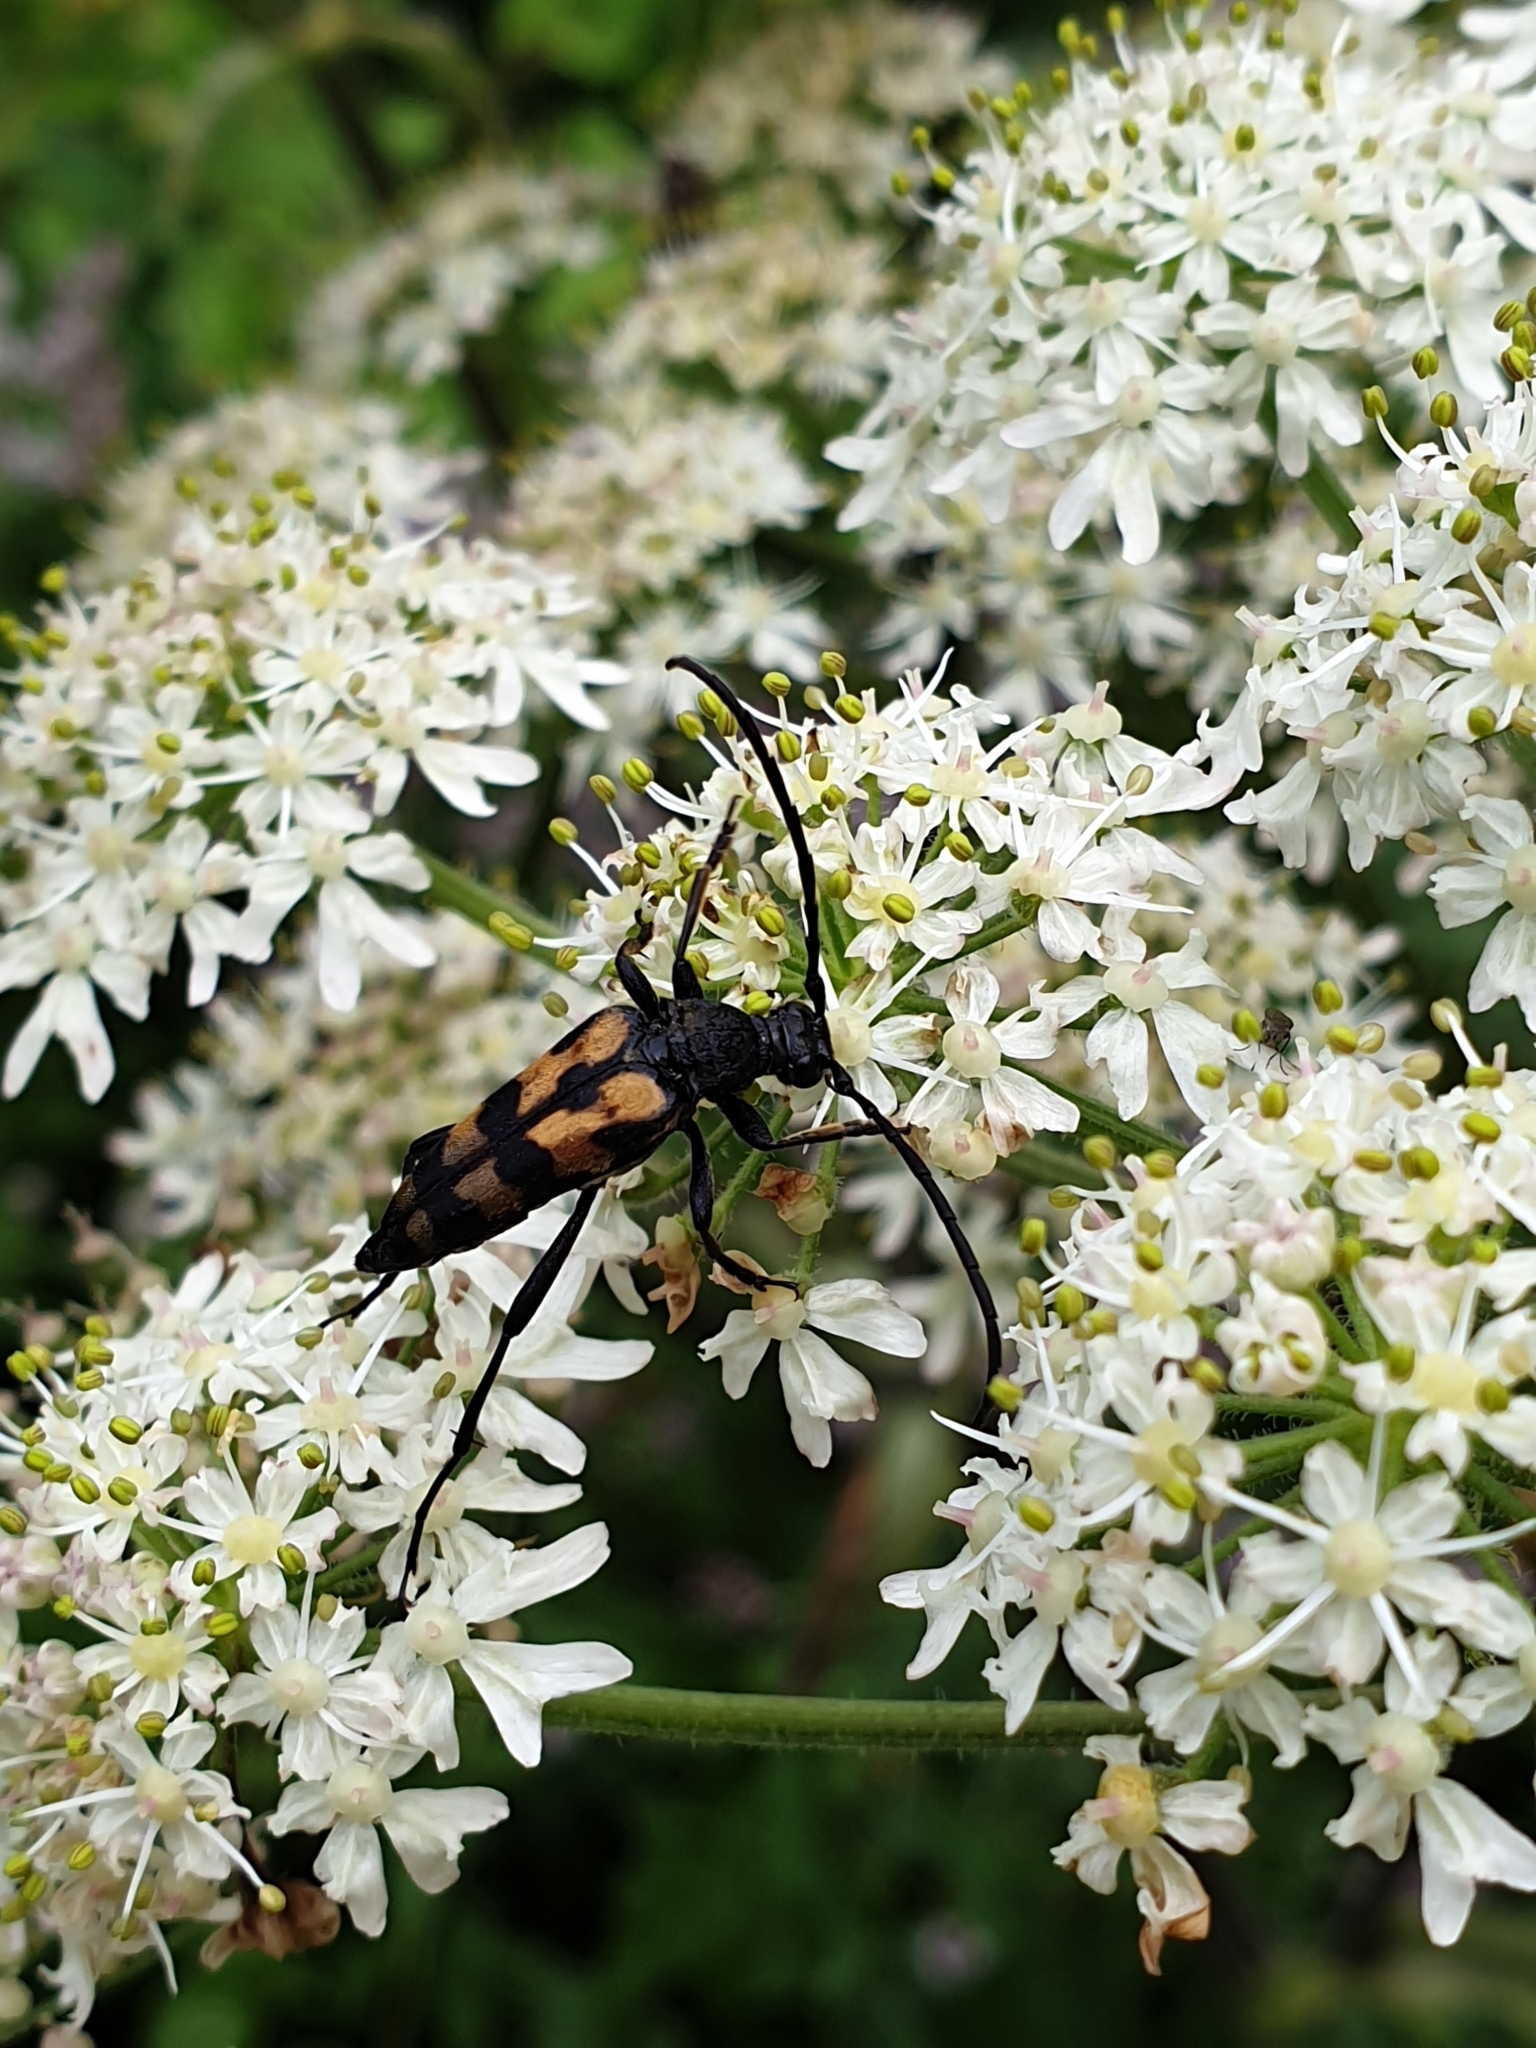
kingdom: Animalia
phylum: Arthropoda
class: Insecta
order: Coleoptera
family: Cerambycidae
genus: Leptura
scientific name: Leptura quadrifasciata
